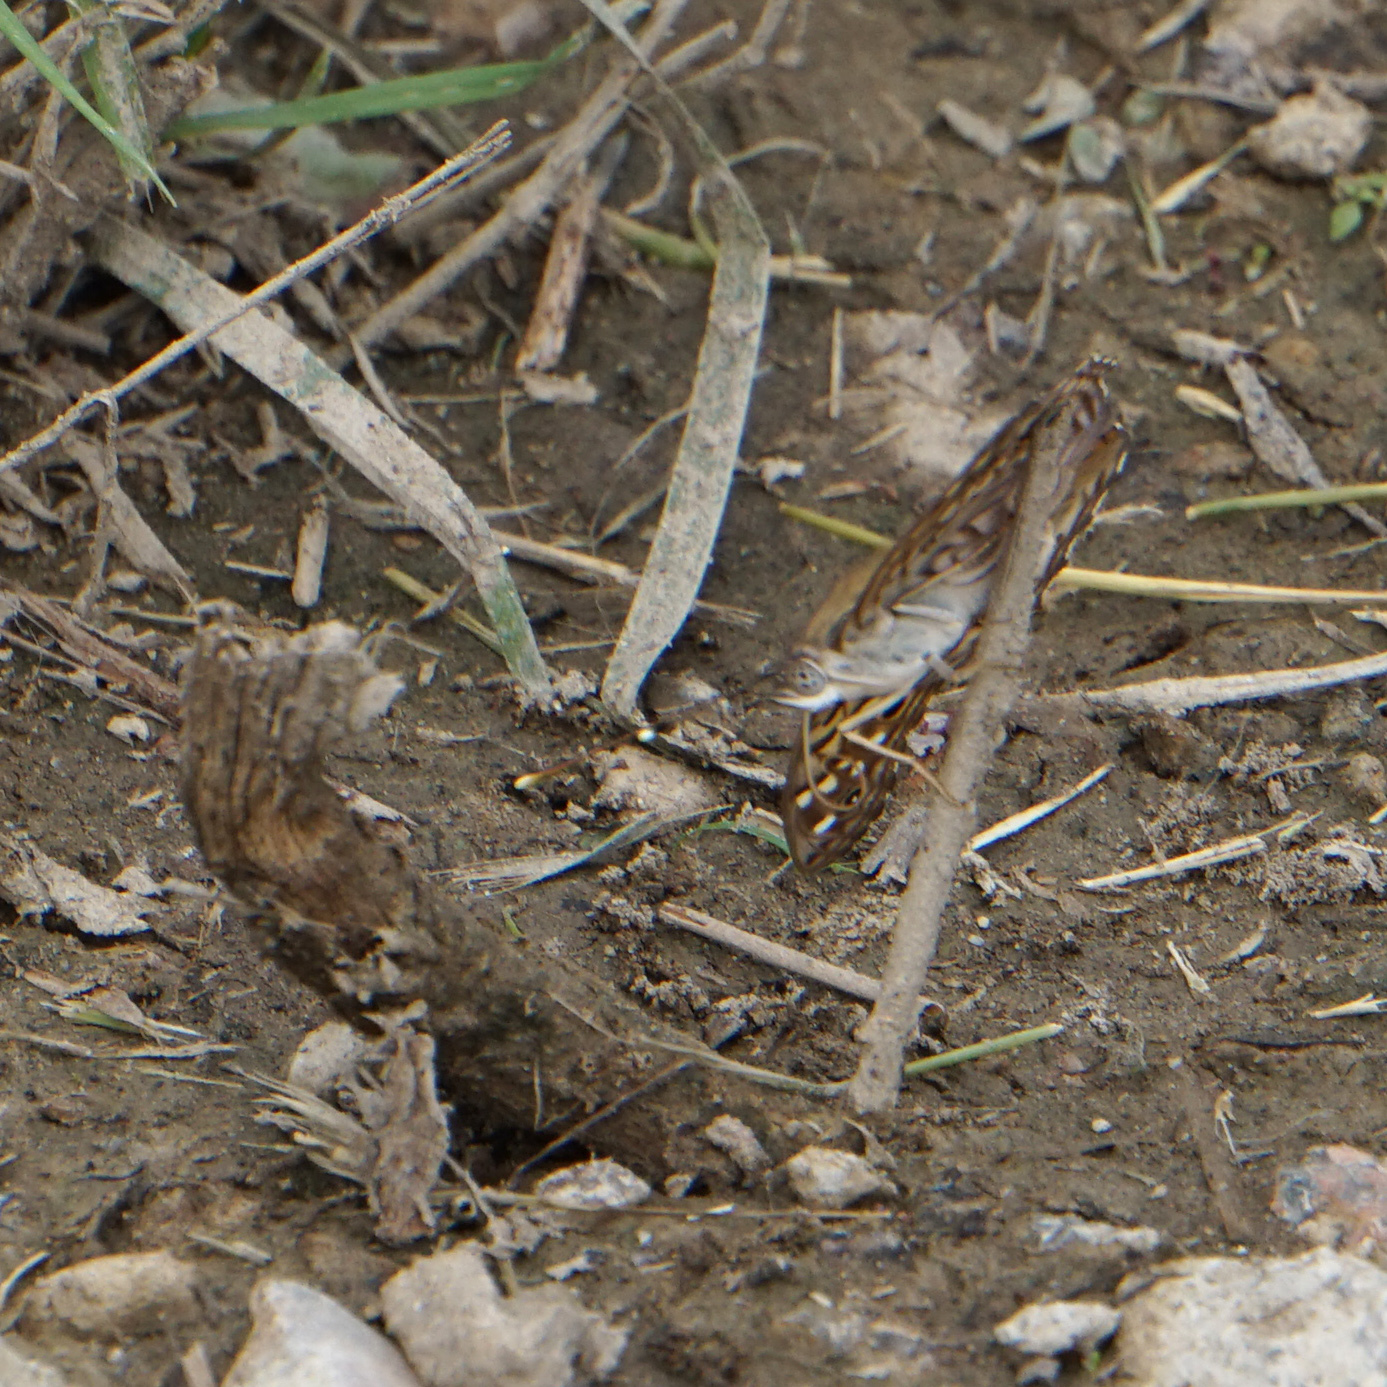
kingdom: Animalia
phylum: Arthropoda
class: Insecta
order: Lepidoptera
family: Nymphalidae
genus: Asterocampa
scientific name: Asterocampa celtis
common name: Hackberry emperor
